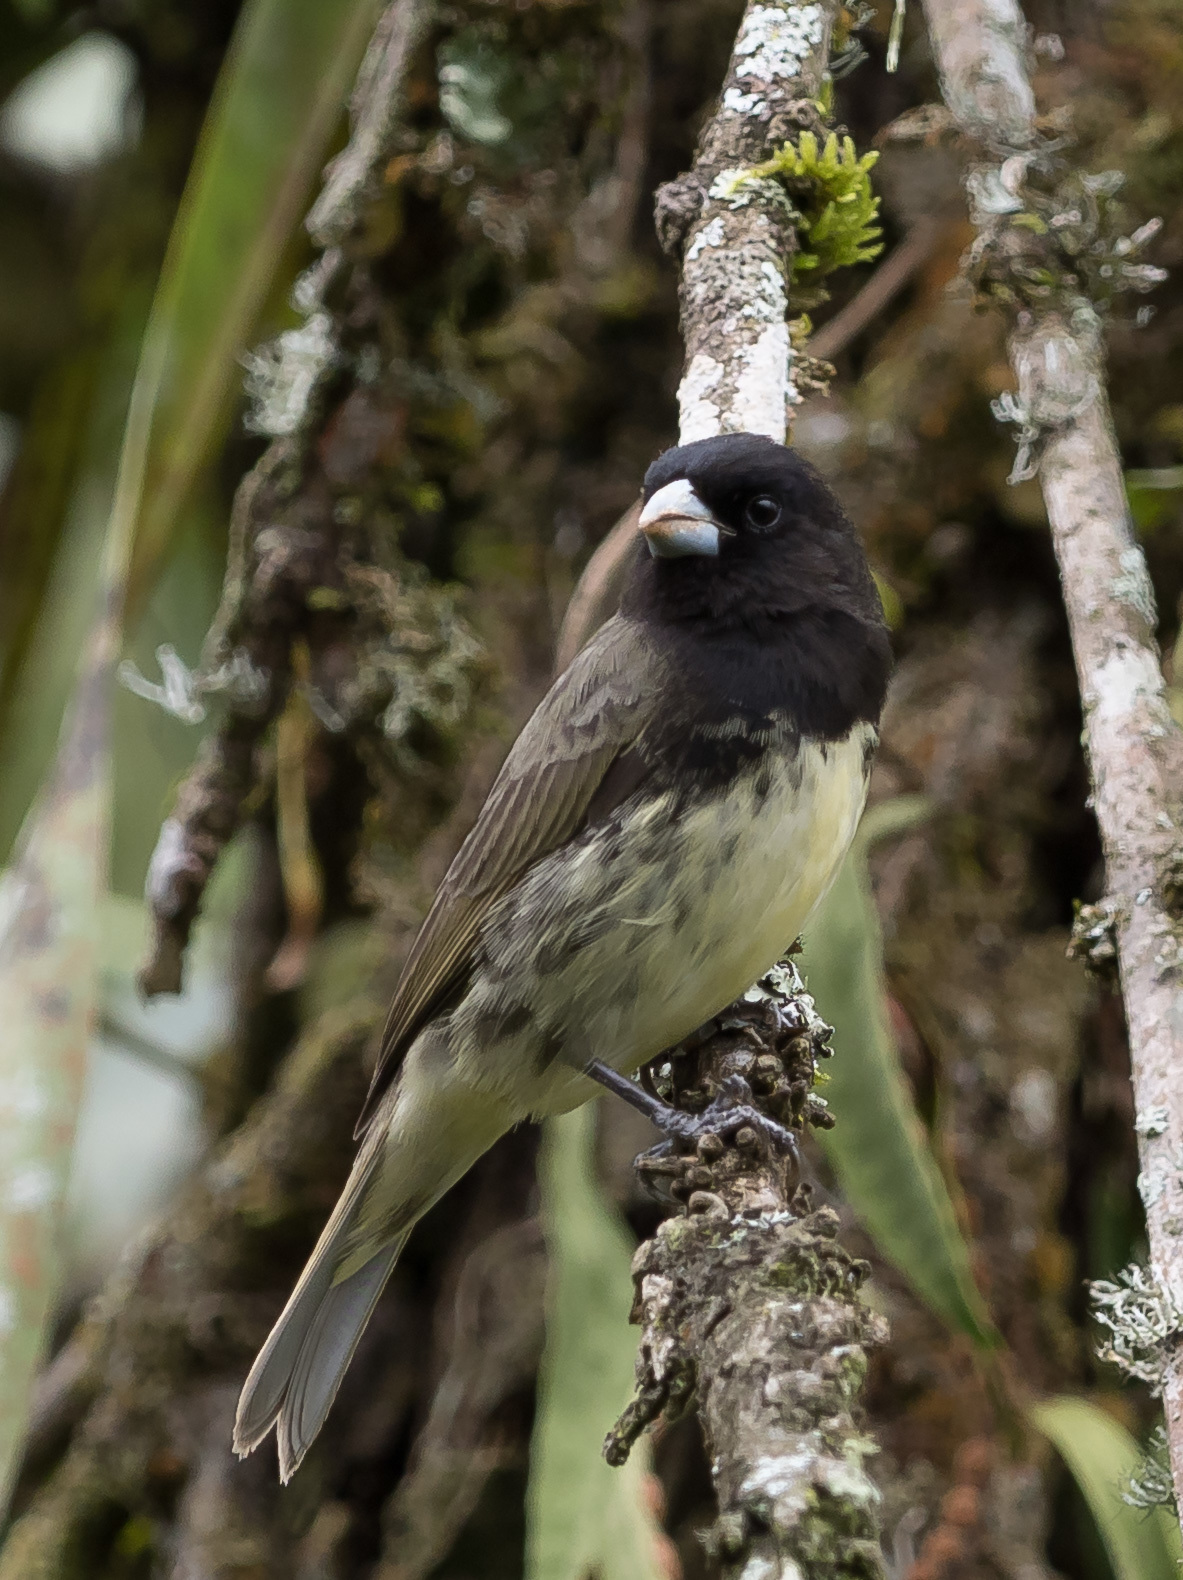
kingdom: Animalia
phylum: Chordata
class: Aves
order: Passeriformes
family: Thraupidae
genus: Sporophila
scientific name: Sporophila nigricollis
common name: Yellow-bellied seedeater
